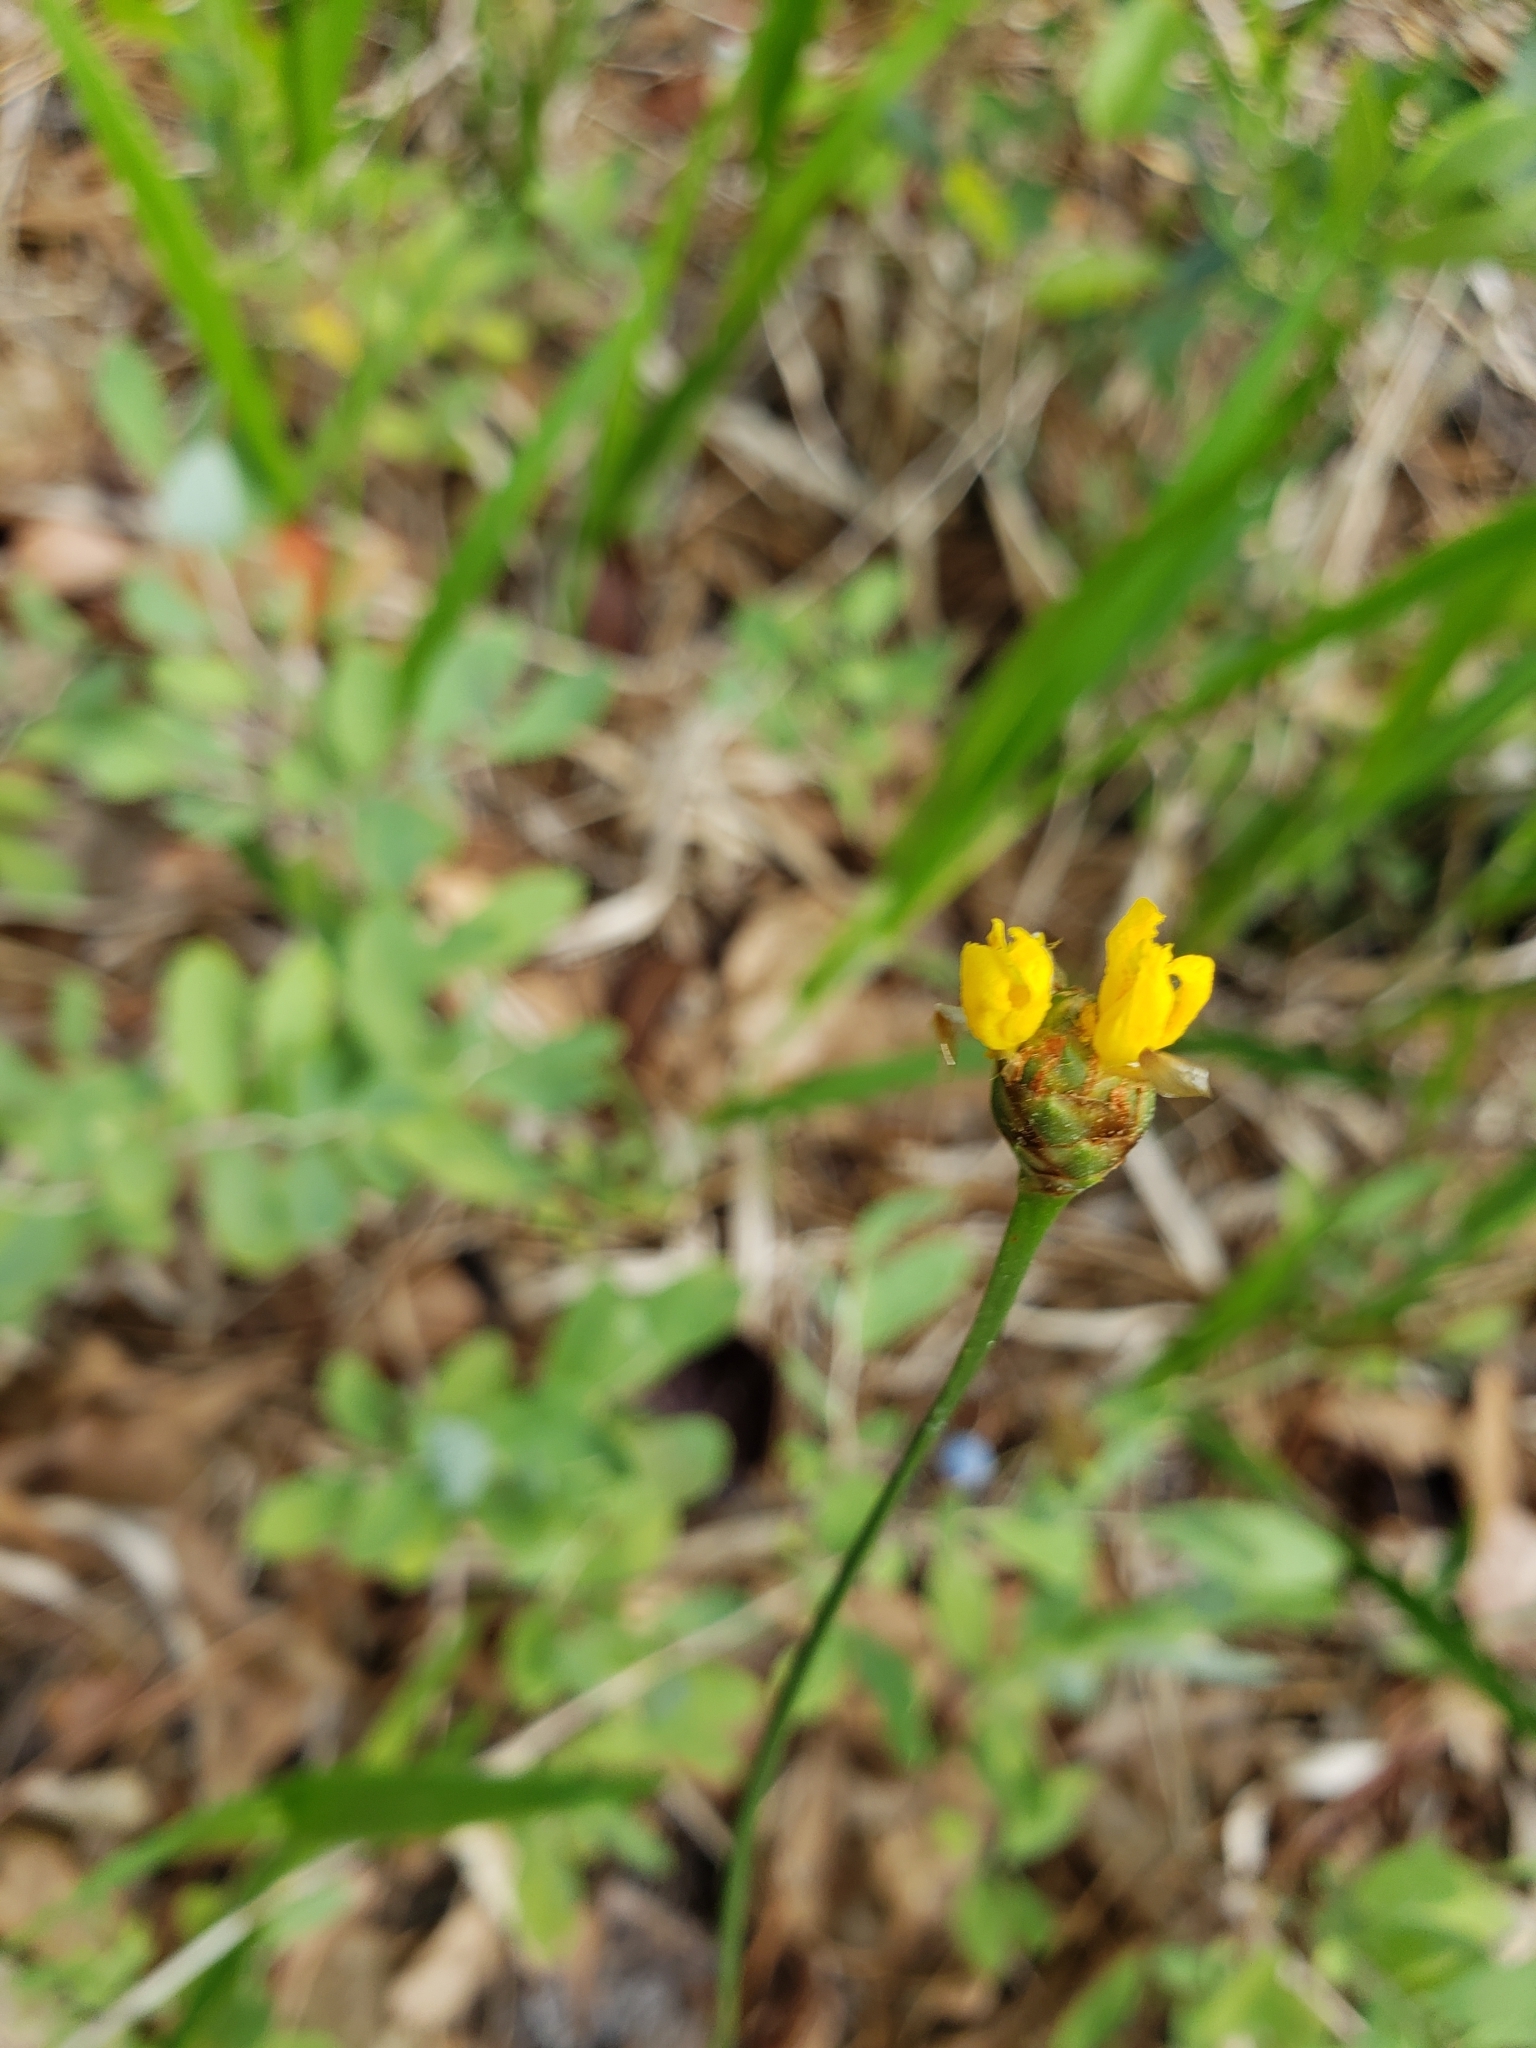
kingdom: Plantae
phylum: Tracheophyta
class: Liliopsida
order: Poales
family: Xyridaceae
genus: Xyris
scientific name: Xyris caroliniana
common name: Carolina yellow-eyed-grass
